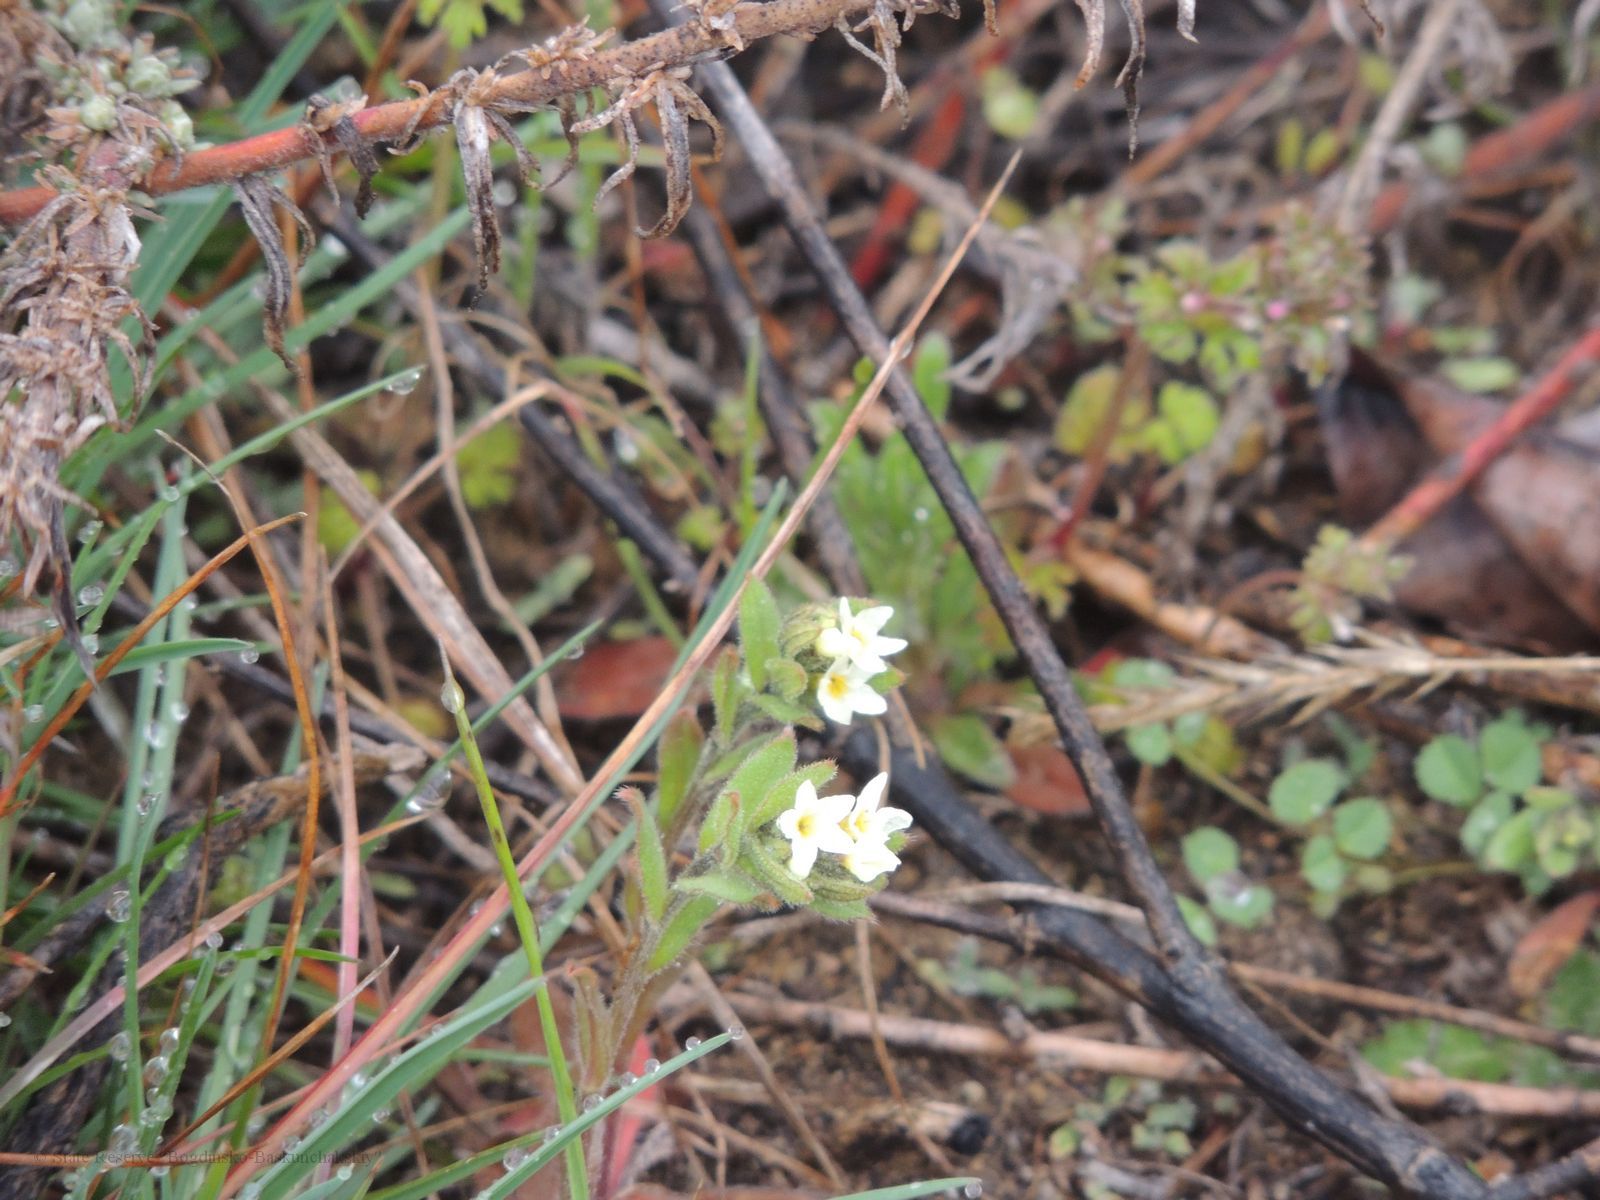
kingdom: Plantae
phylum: Tracheophyta
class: Magnoliopsida
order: Boraginales
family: Boraginaceae
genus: Buglossoides
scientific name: Buglossoides arvensis
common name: Corn gromwell
